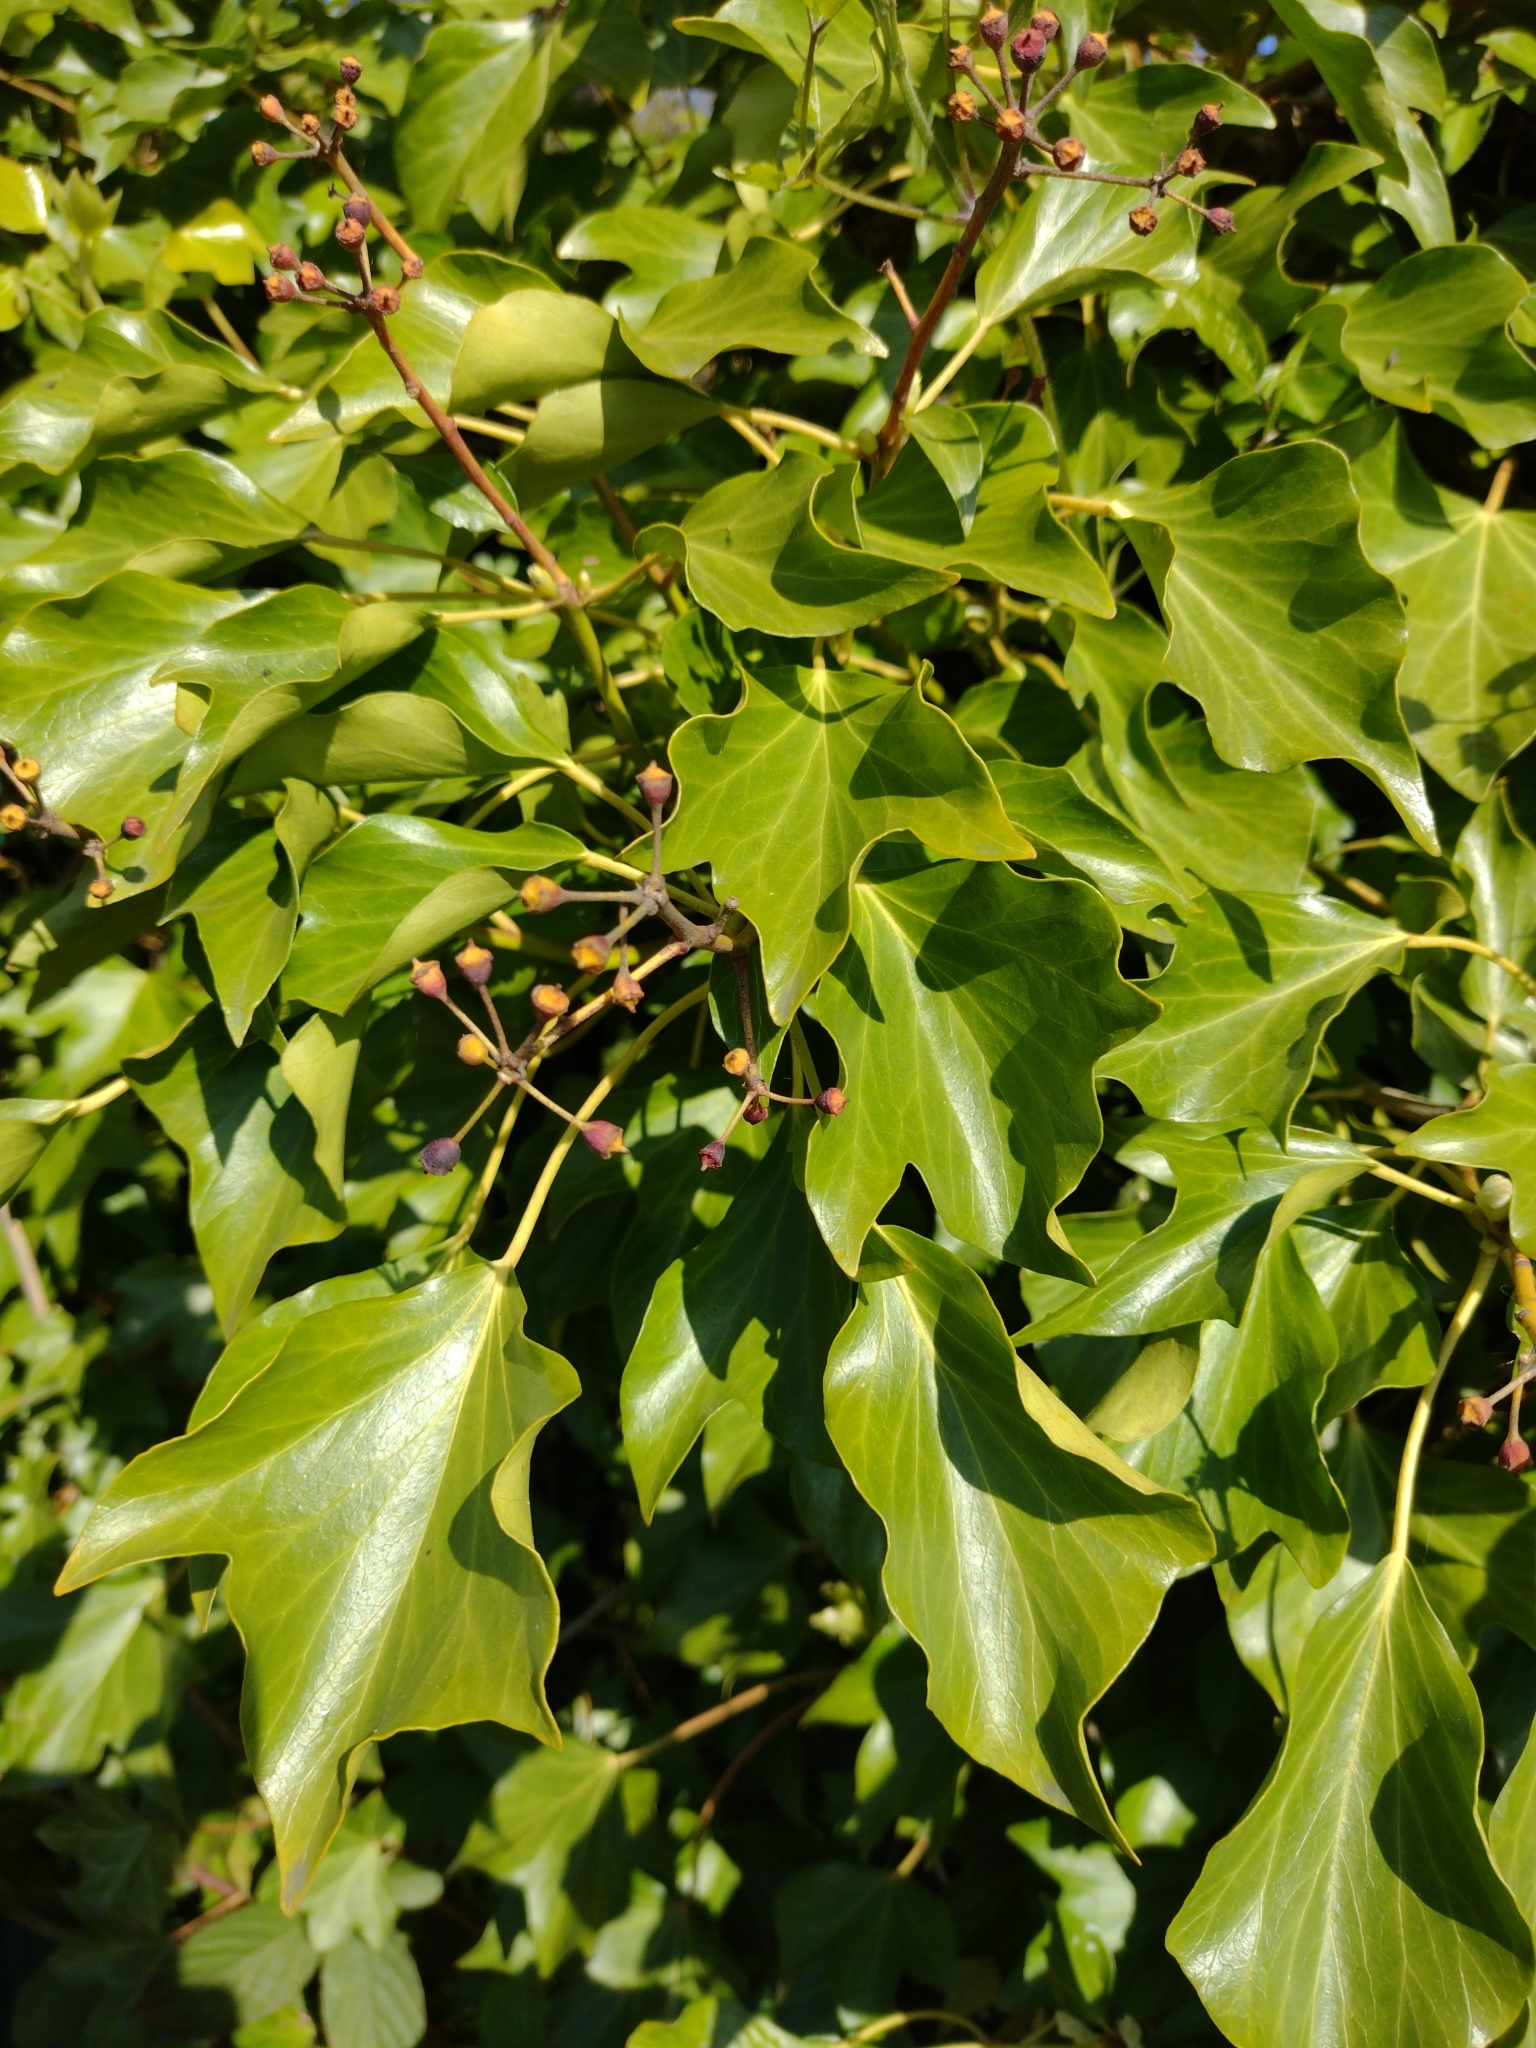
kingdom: Plantae
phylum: Tracheophyta
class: Magnoliopsida
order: Apiales
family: Araliaceae
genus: Hedera
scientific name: Hedera helix
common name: Ivy
